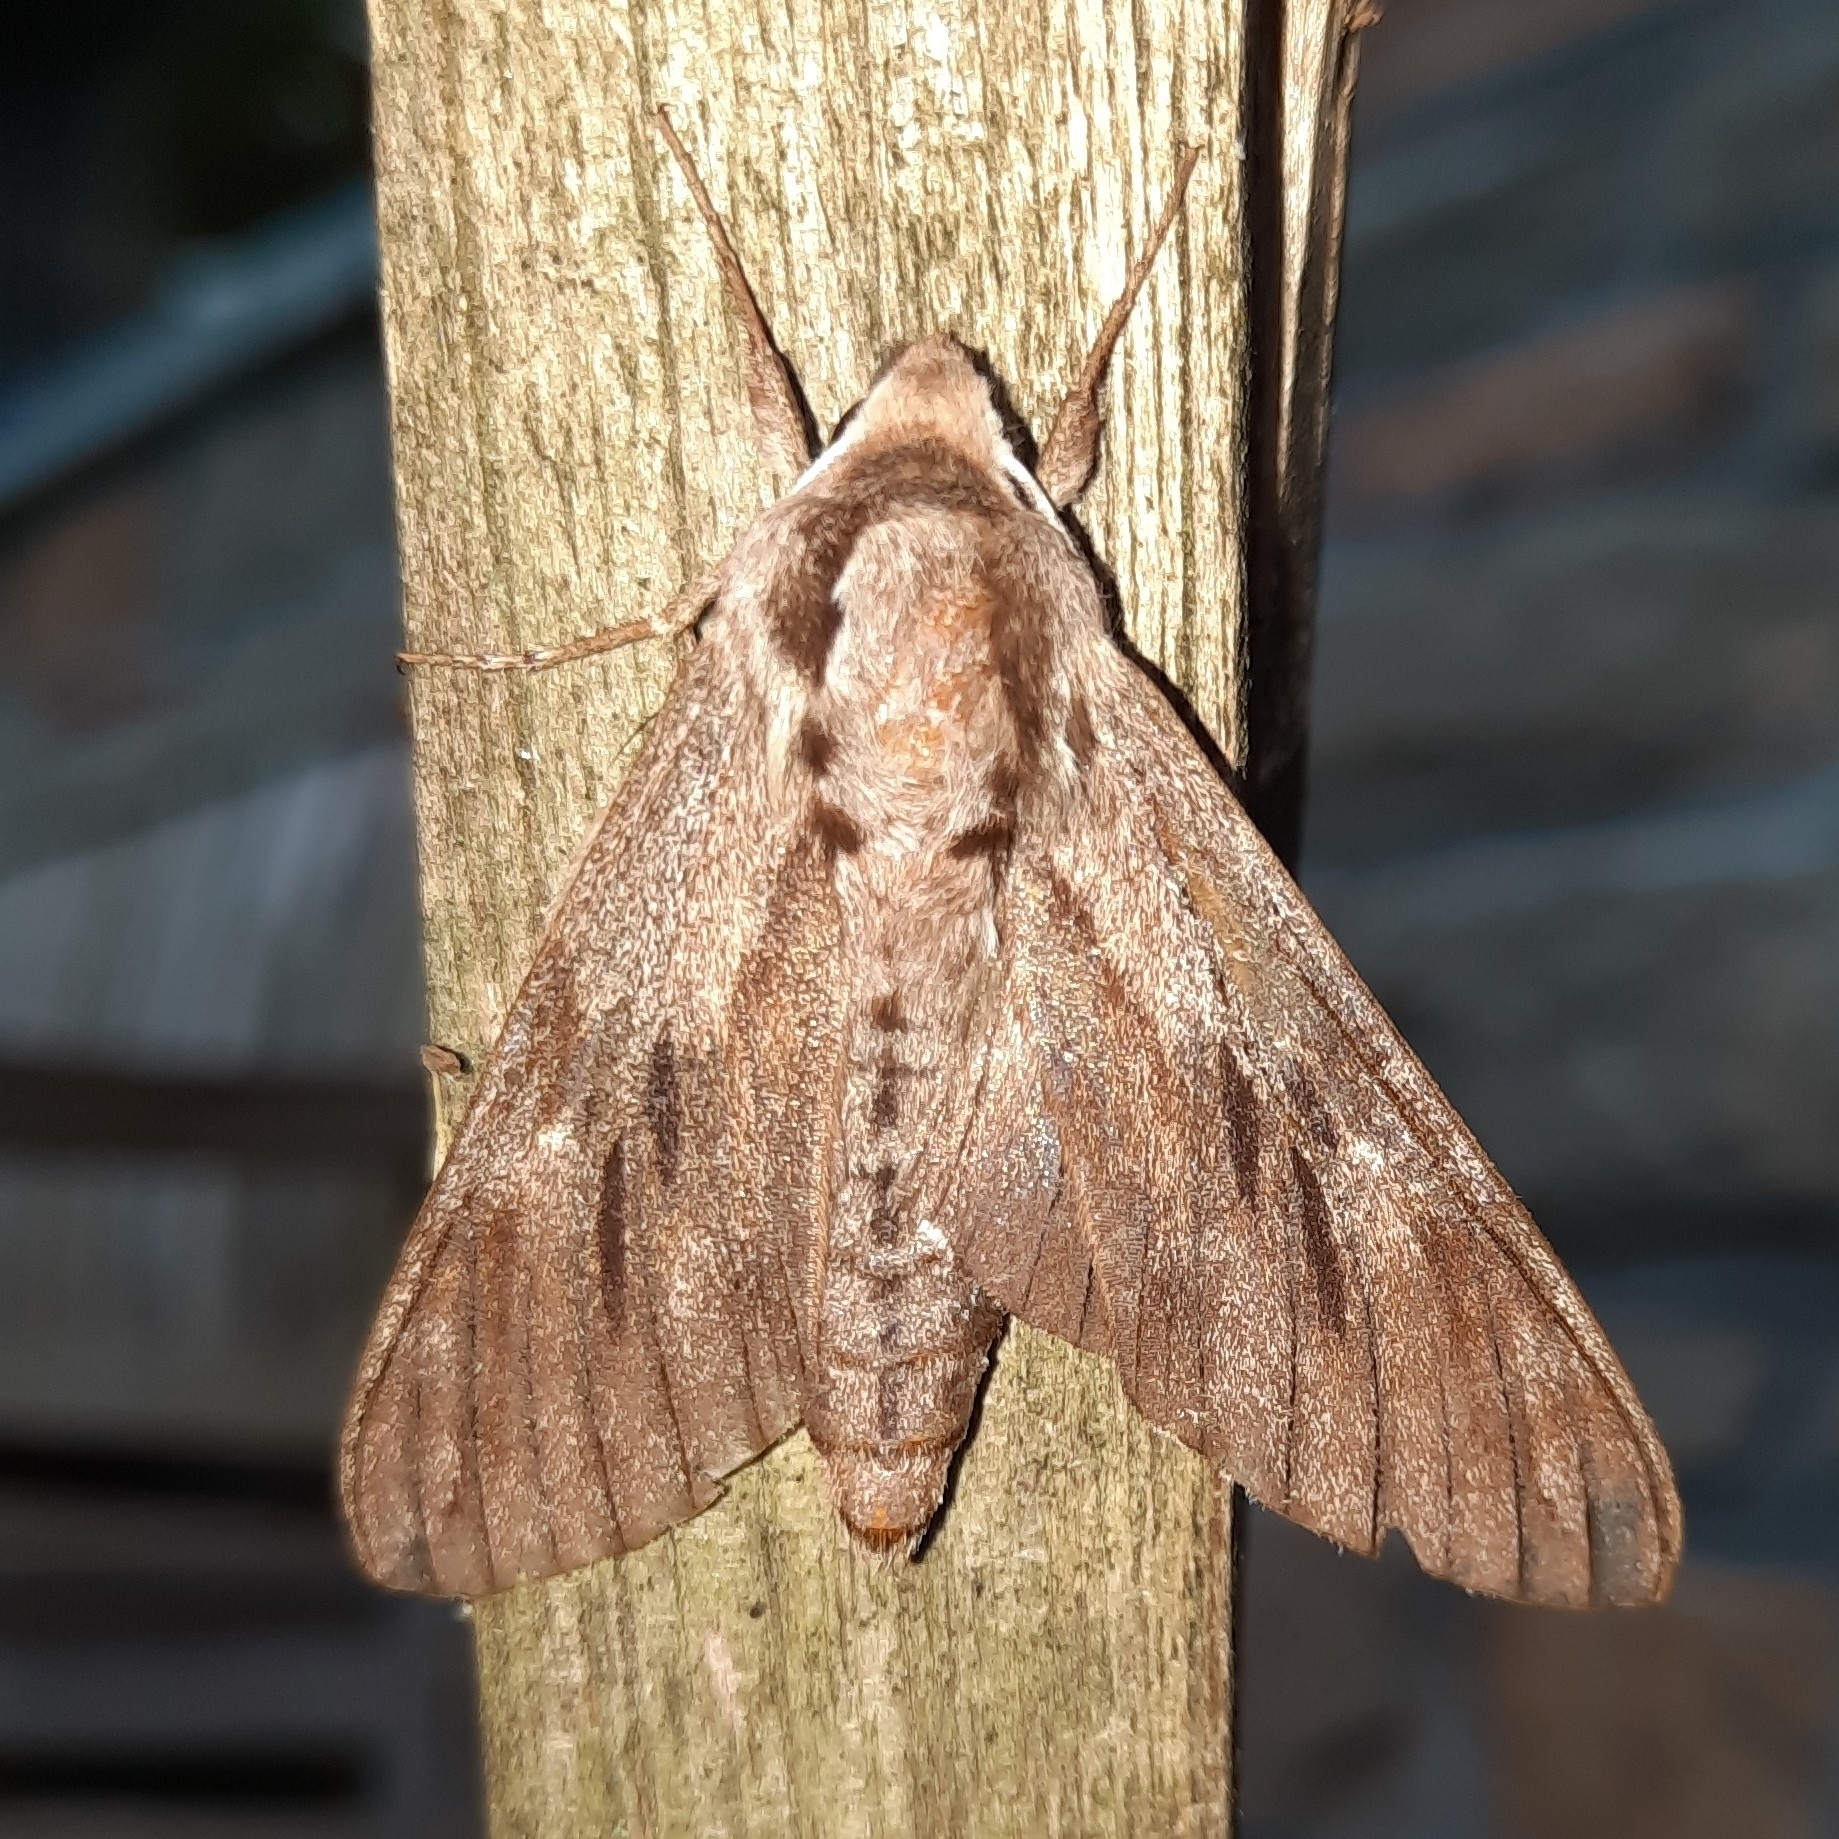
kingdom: Animalia
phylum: Arthropoda
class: Insecta
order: Lepidoptera
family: Sphingidae
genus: Sphinx
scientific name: Sphinx pinastri
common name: Pine hawk-moth
